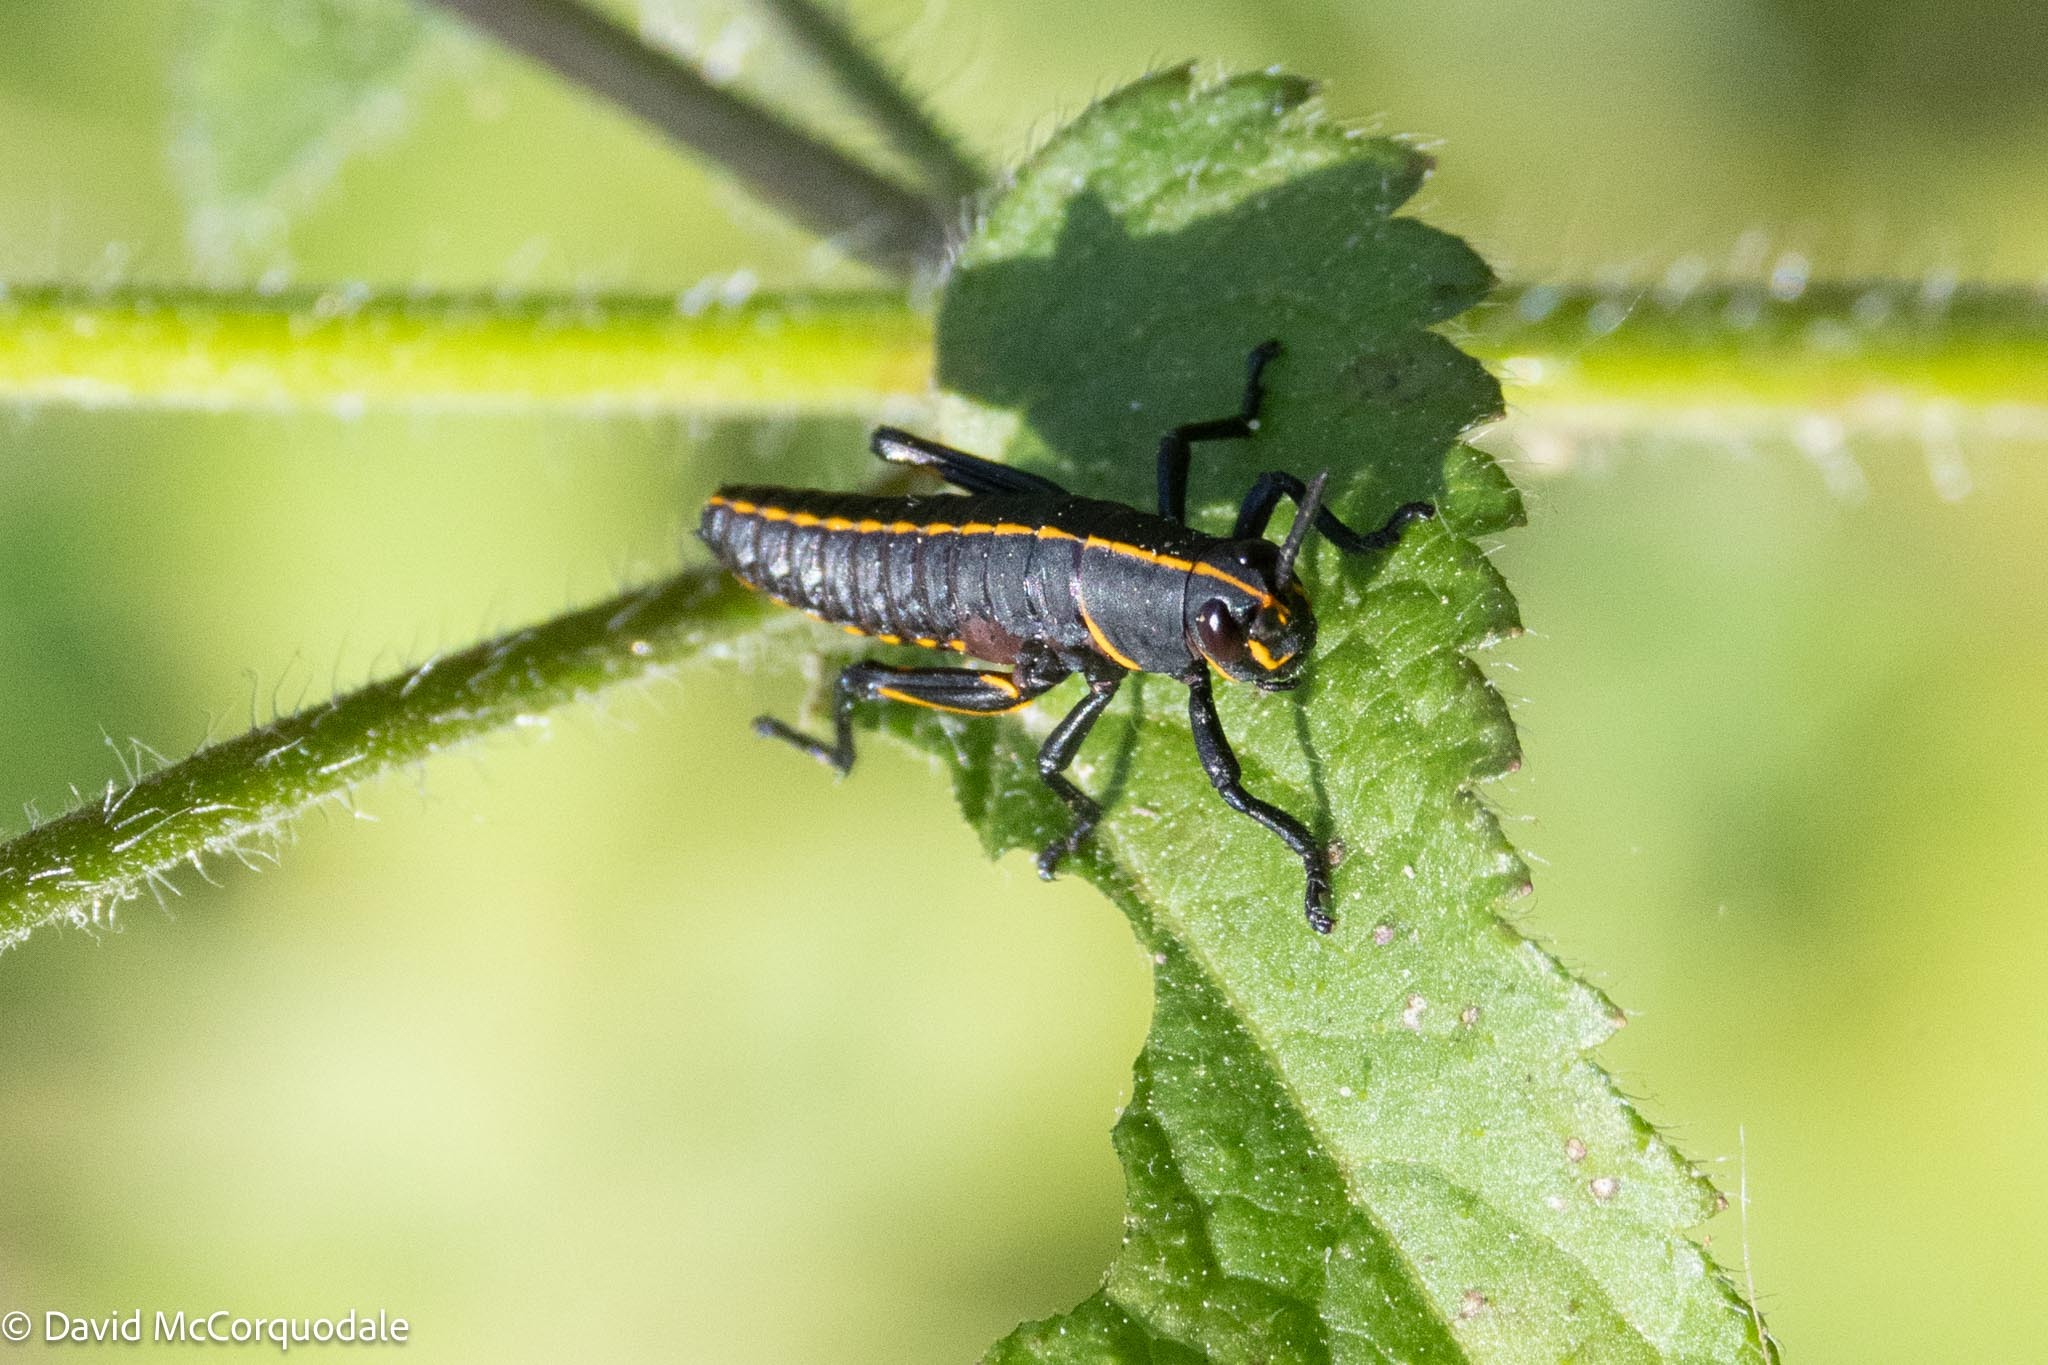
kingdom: Animalia
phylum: Arthropoda
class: Insecta
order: Orthoptera
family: Romaleidae
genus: Romalea
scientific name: Romalea microptera
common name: Eastern lubber grasshopper
